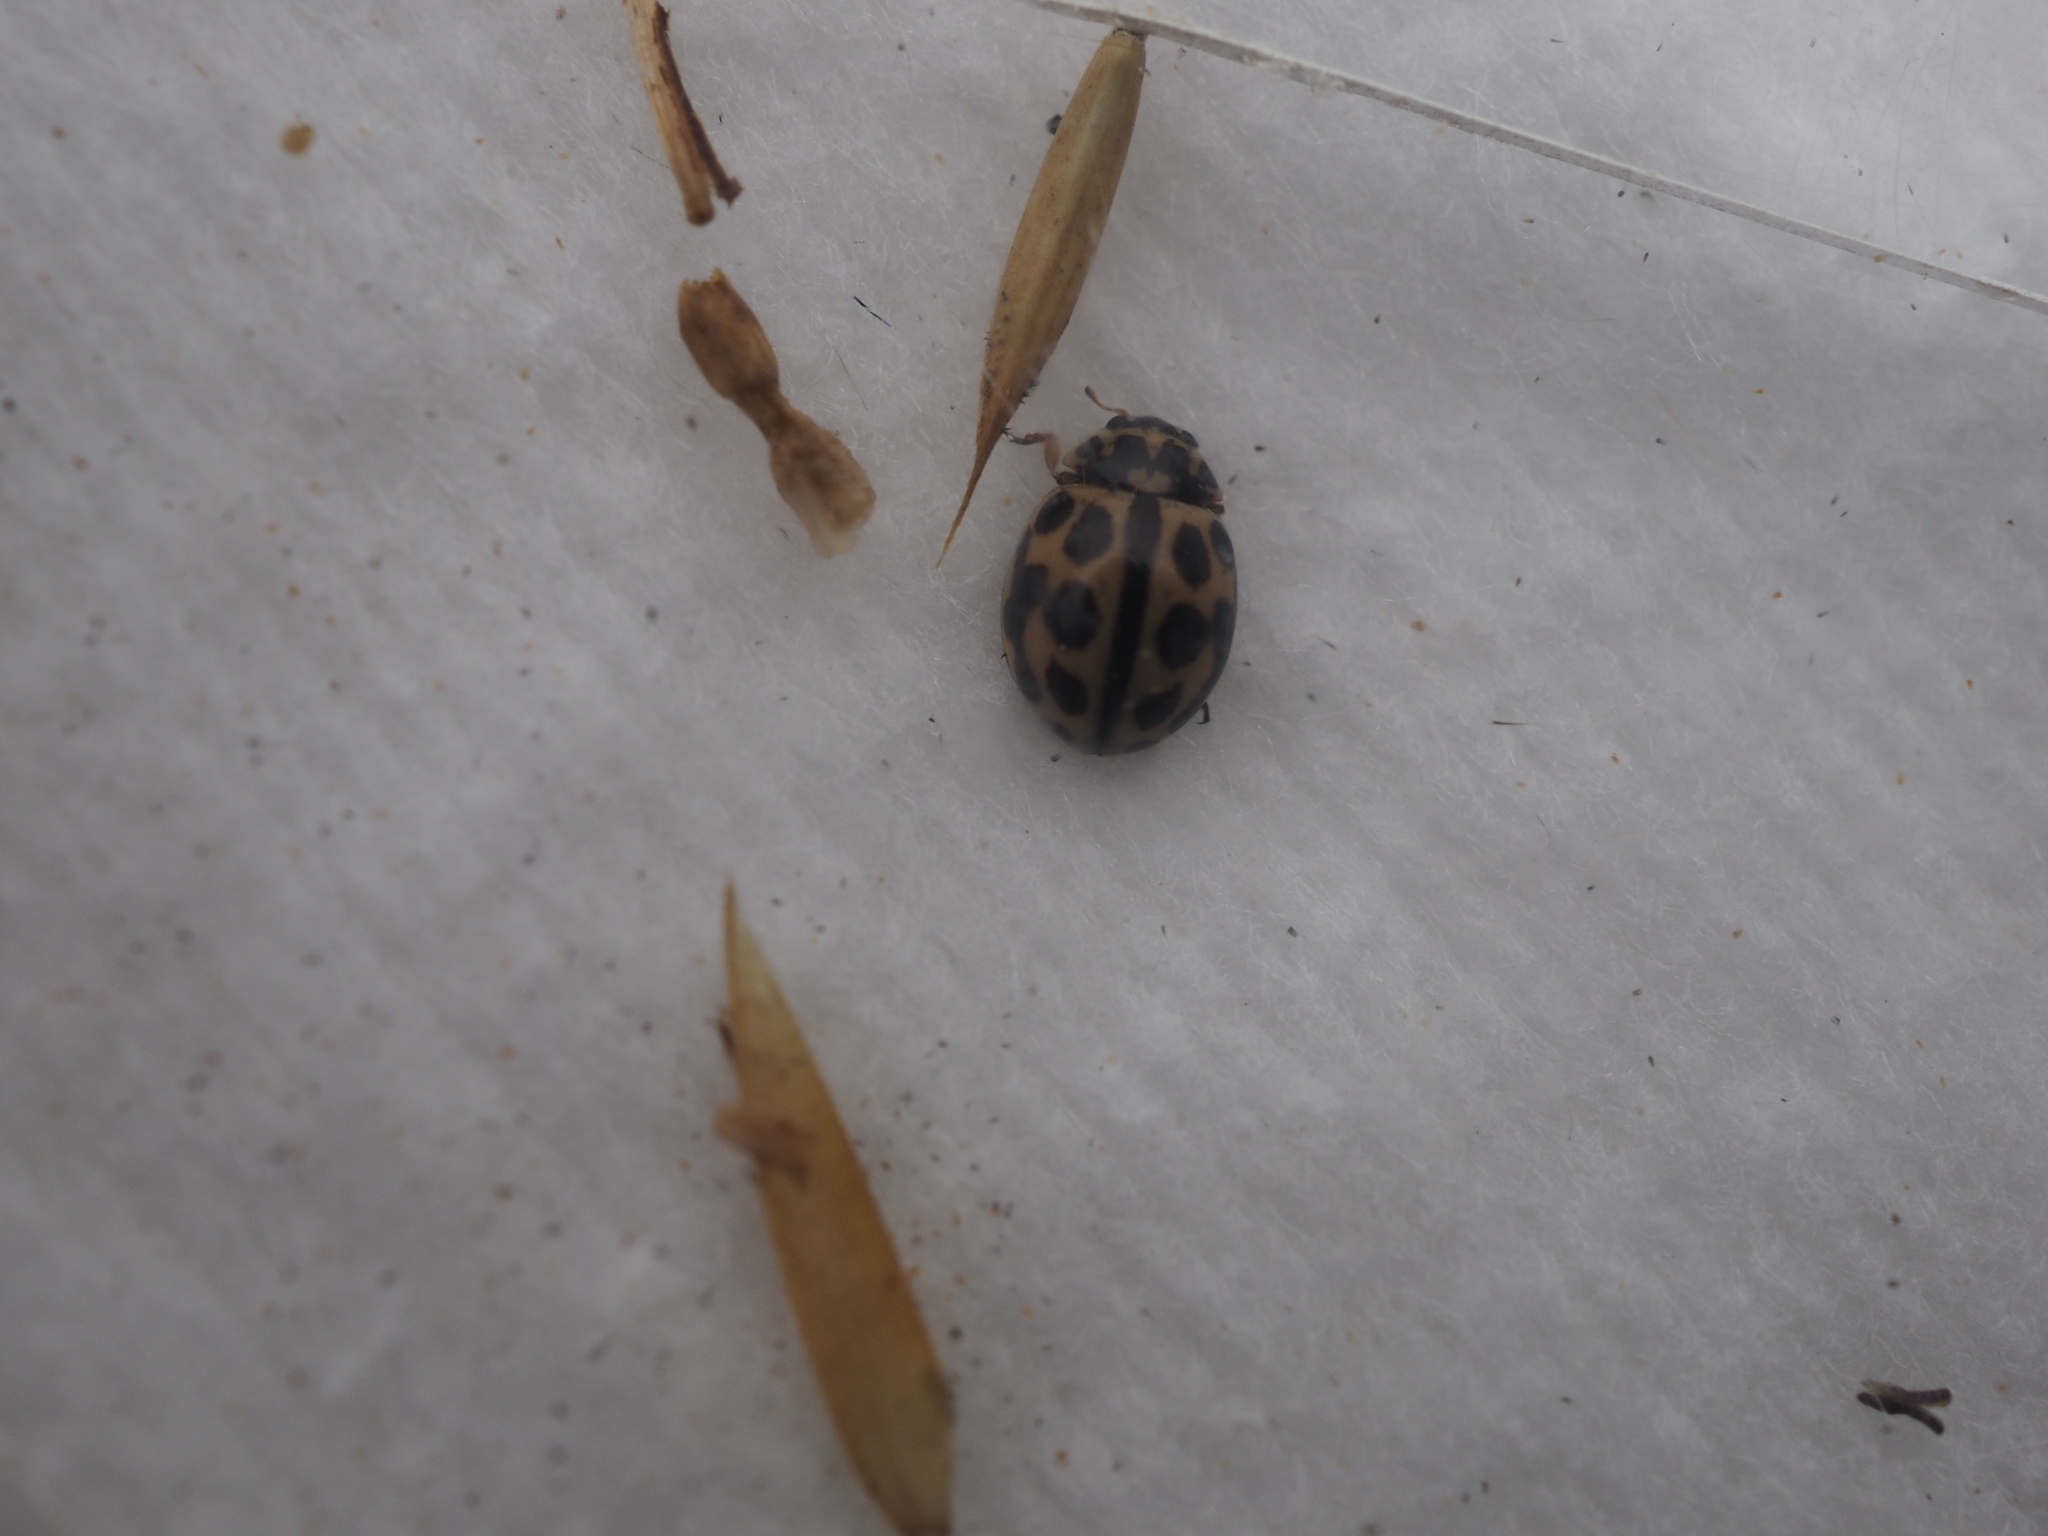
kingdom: Animalia
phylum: Arthropoda
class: Insecta
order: Coleoptera
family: Coccinellidae
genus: Tytthaspis
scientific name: Tytthaspis sedecimpunctata
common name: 16-spot ladybird
